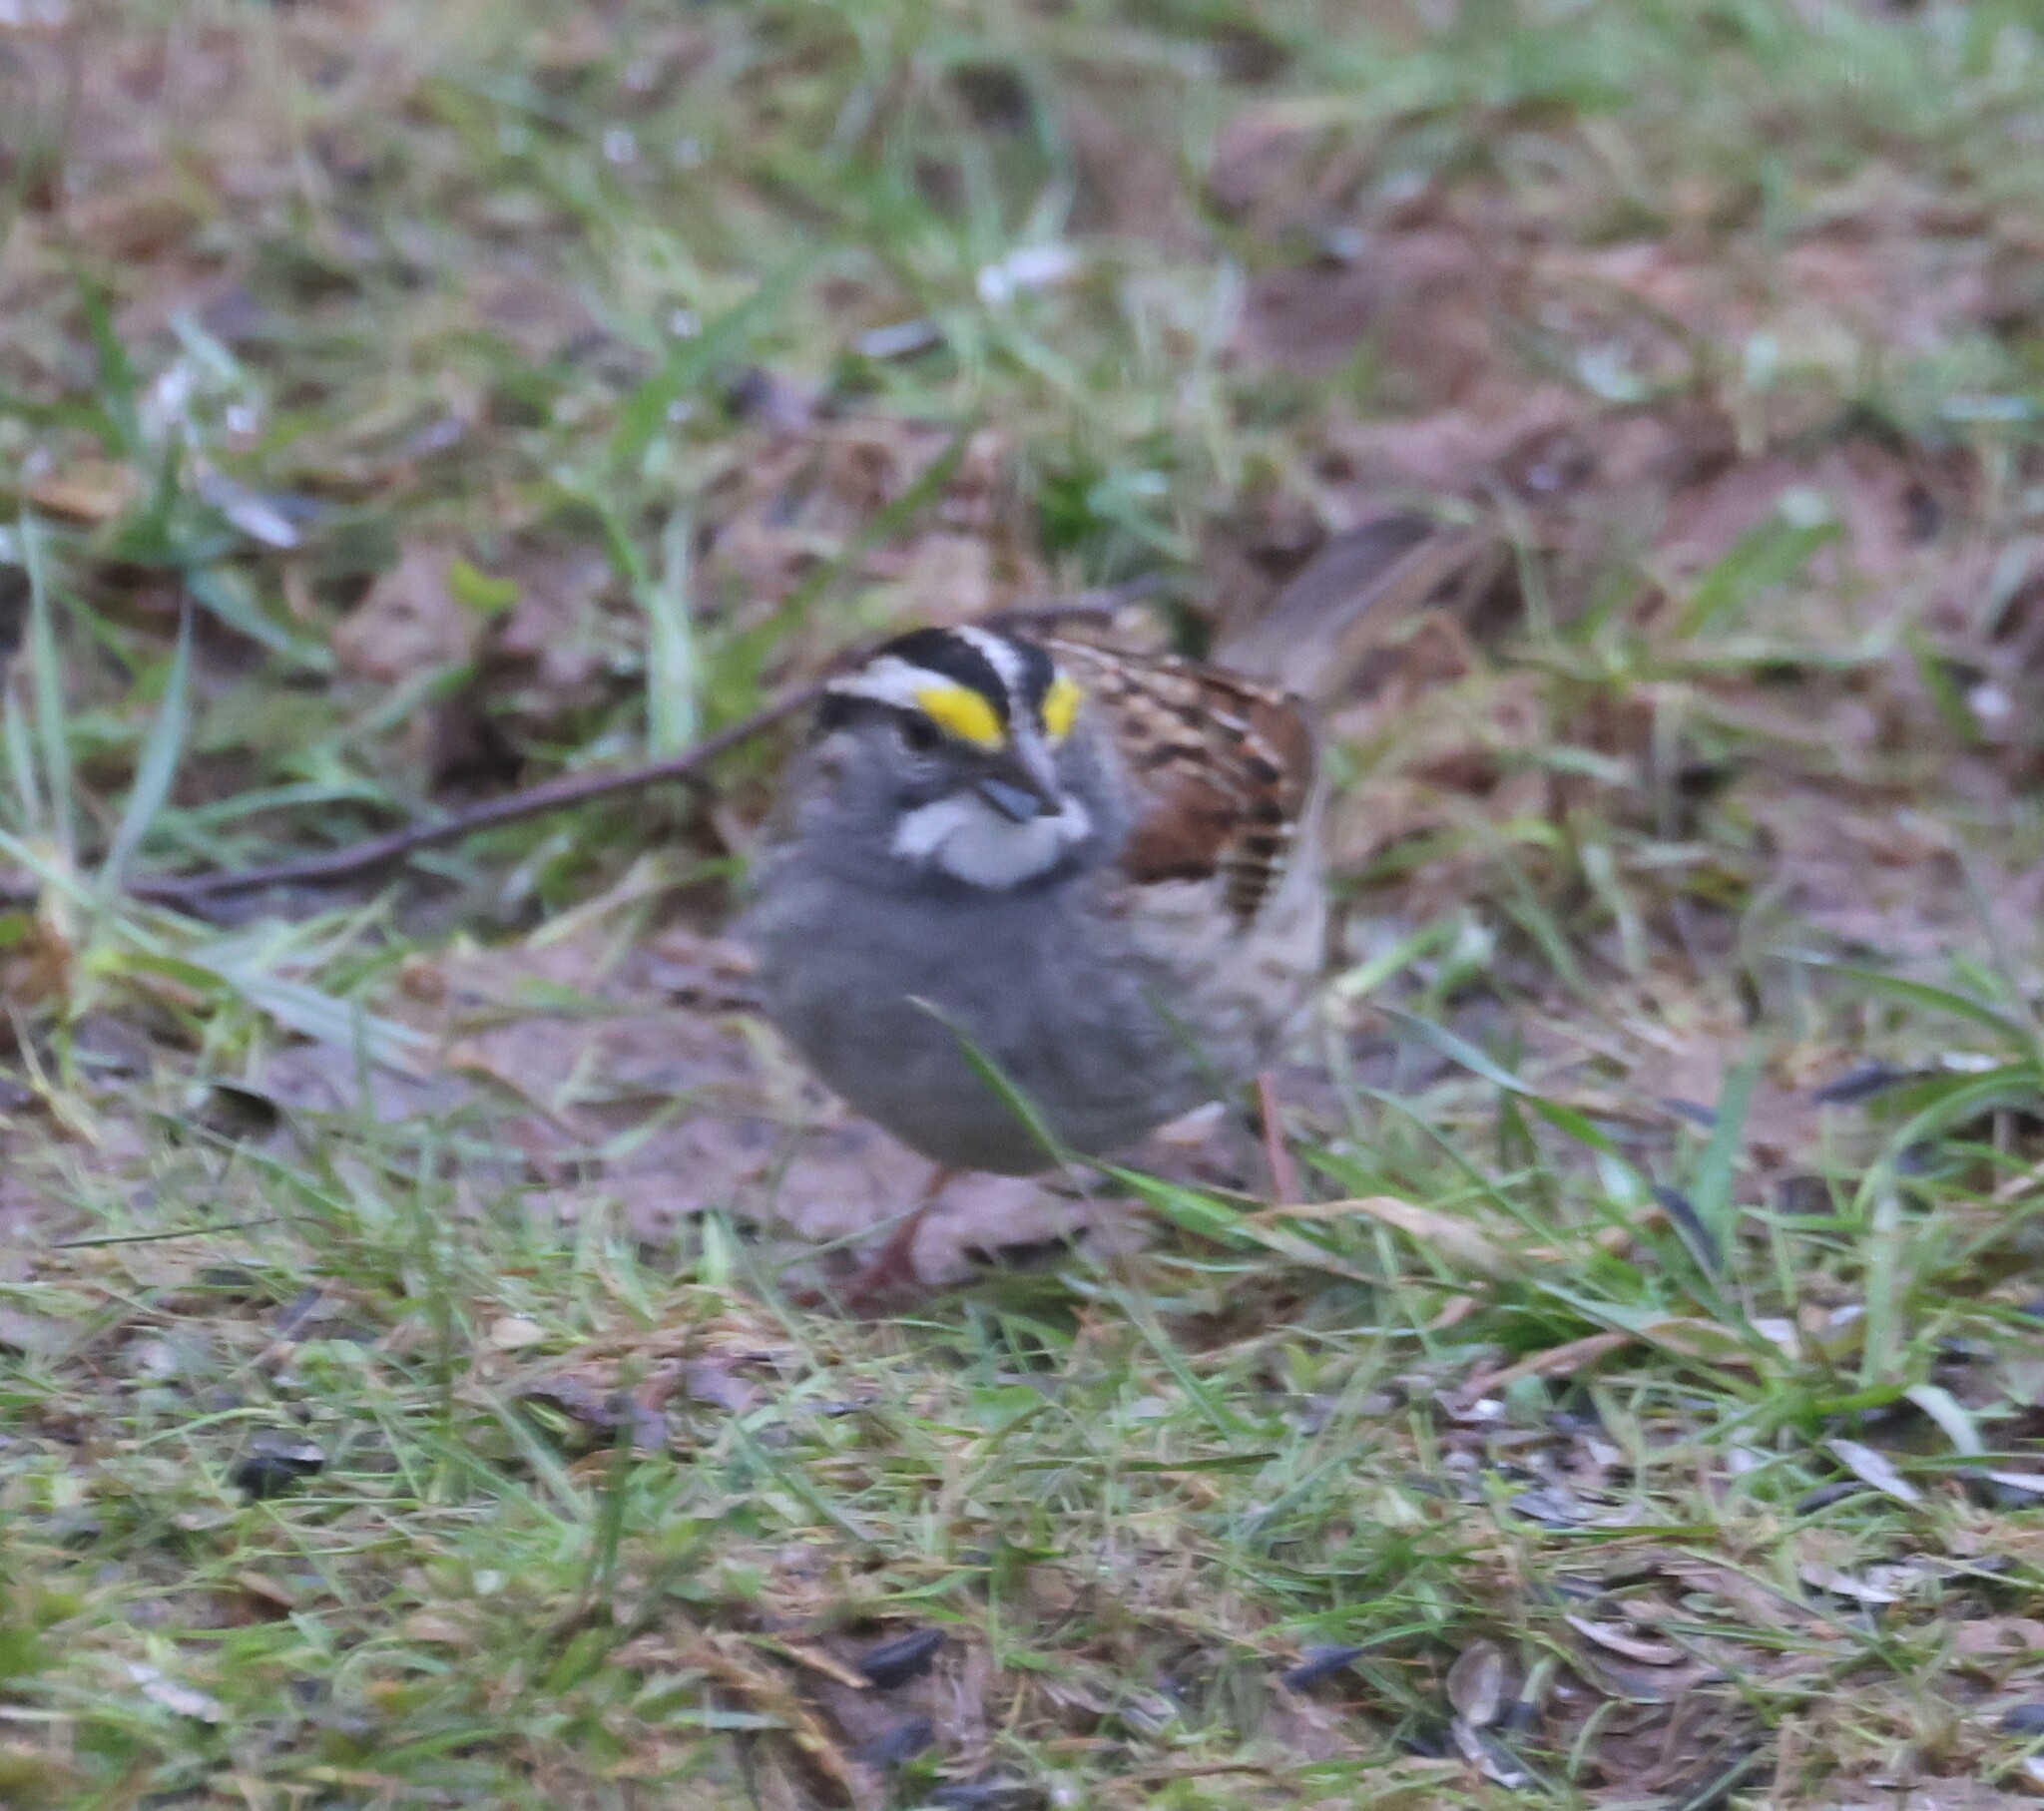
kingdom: Animalia
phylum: Chordata
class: Aves
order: Passeriformes
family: Passerellidae
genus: Zonotrichia
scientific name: Zonotrichia albicollis
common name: White-throated sparrow
